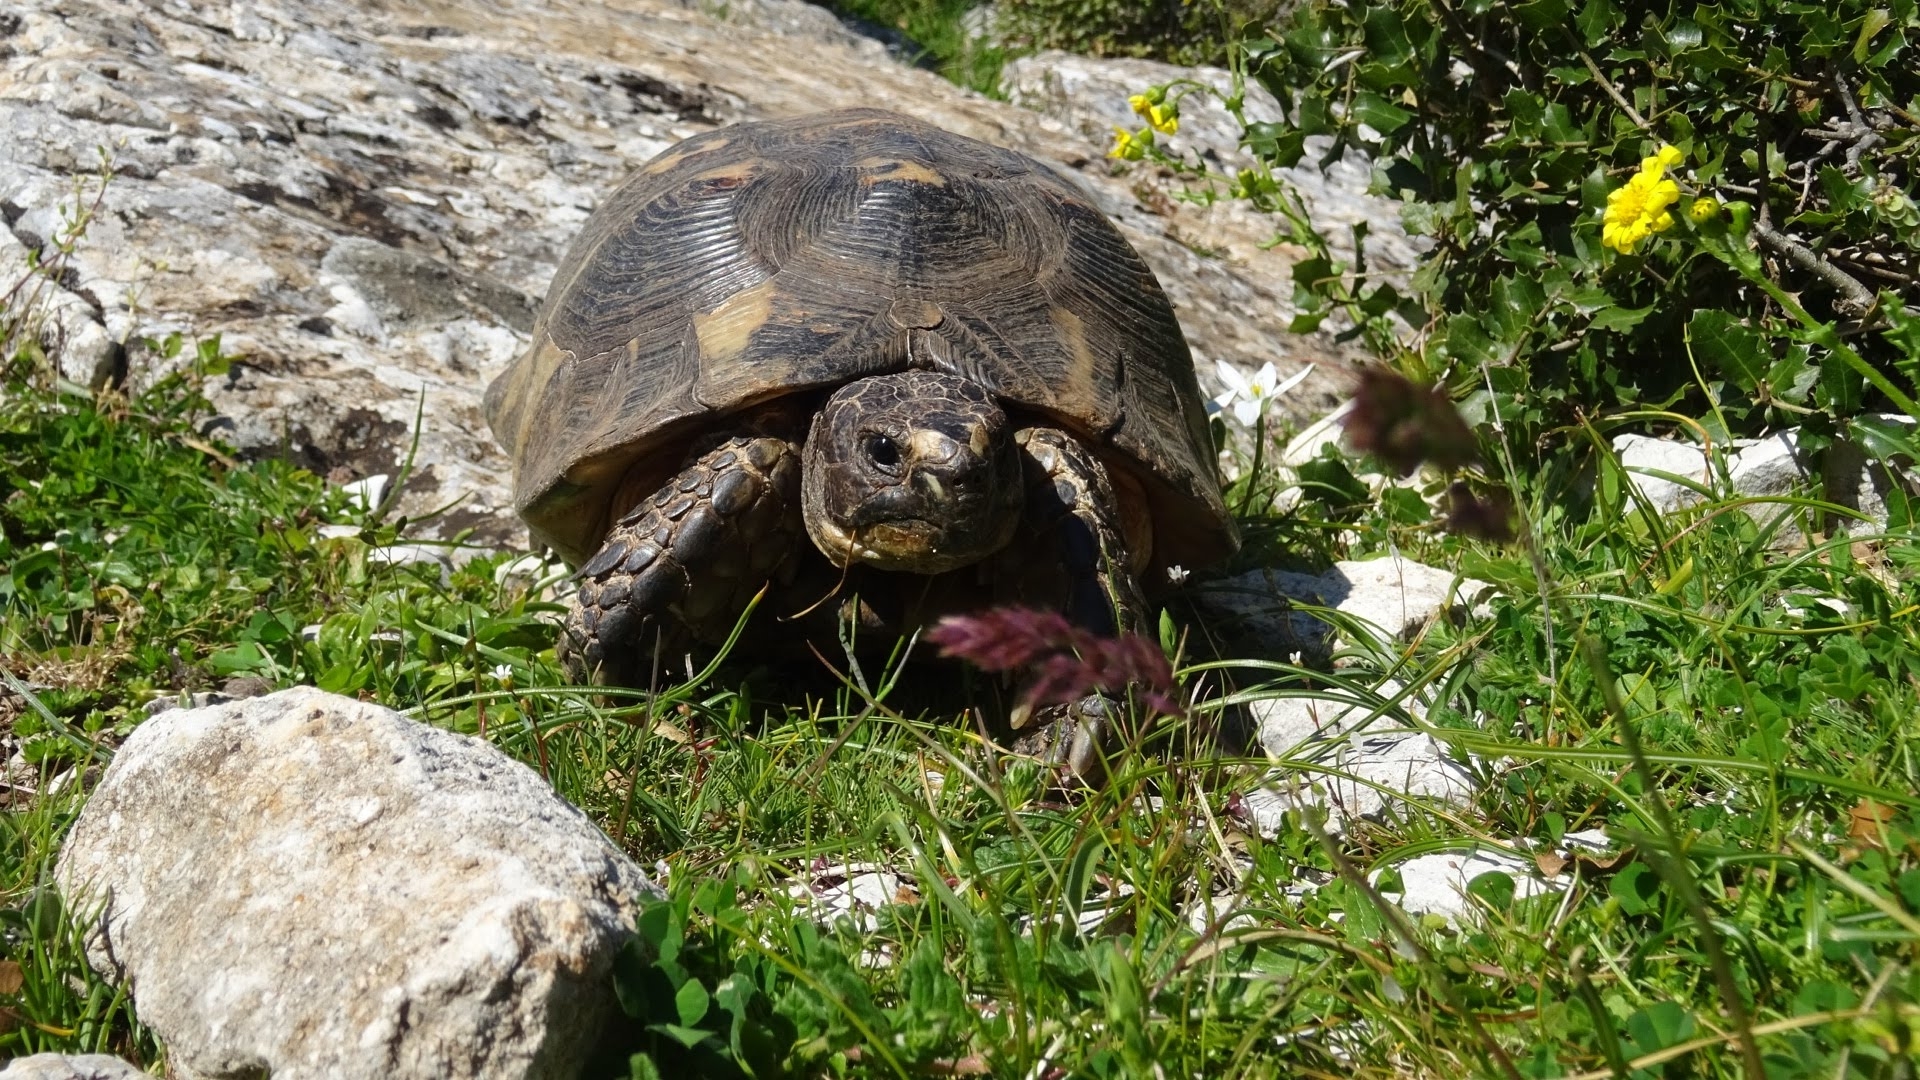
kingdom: Animalia
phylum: Chordata
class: Testudines
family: Testudinidae
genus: Testudo
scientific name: Testudo marginata
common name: Marginated tortoise
